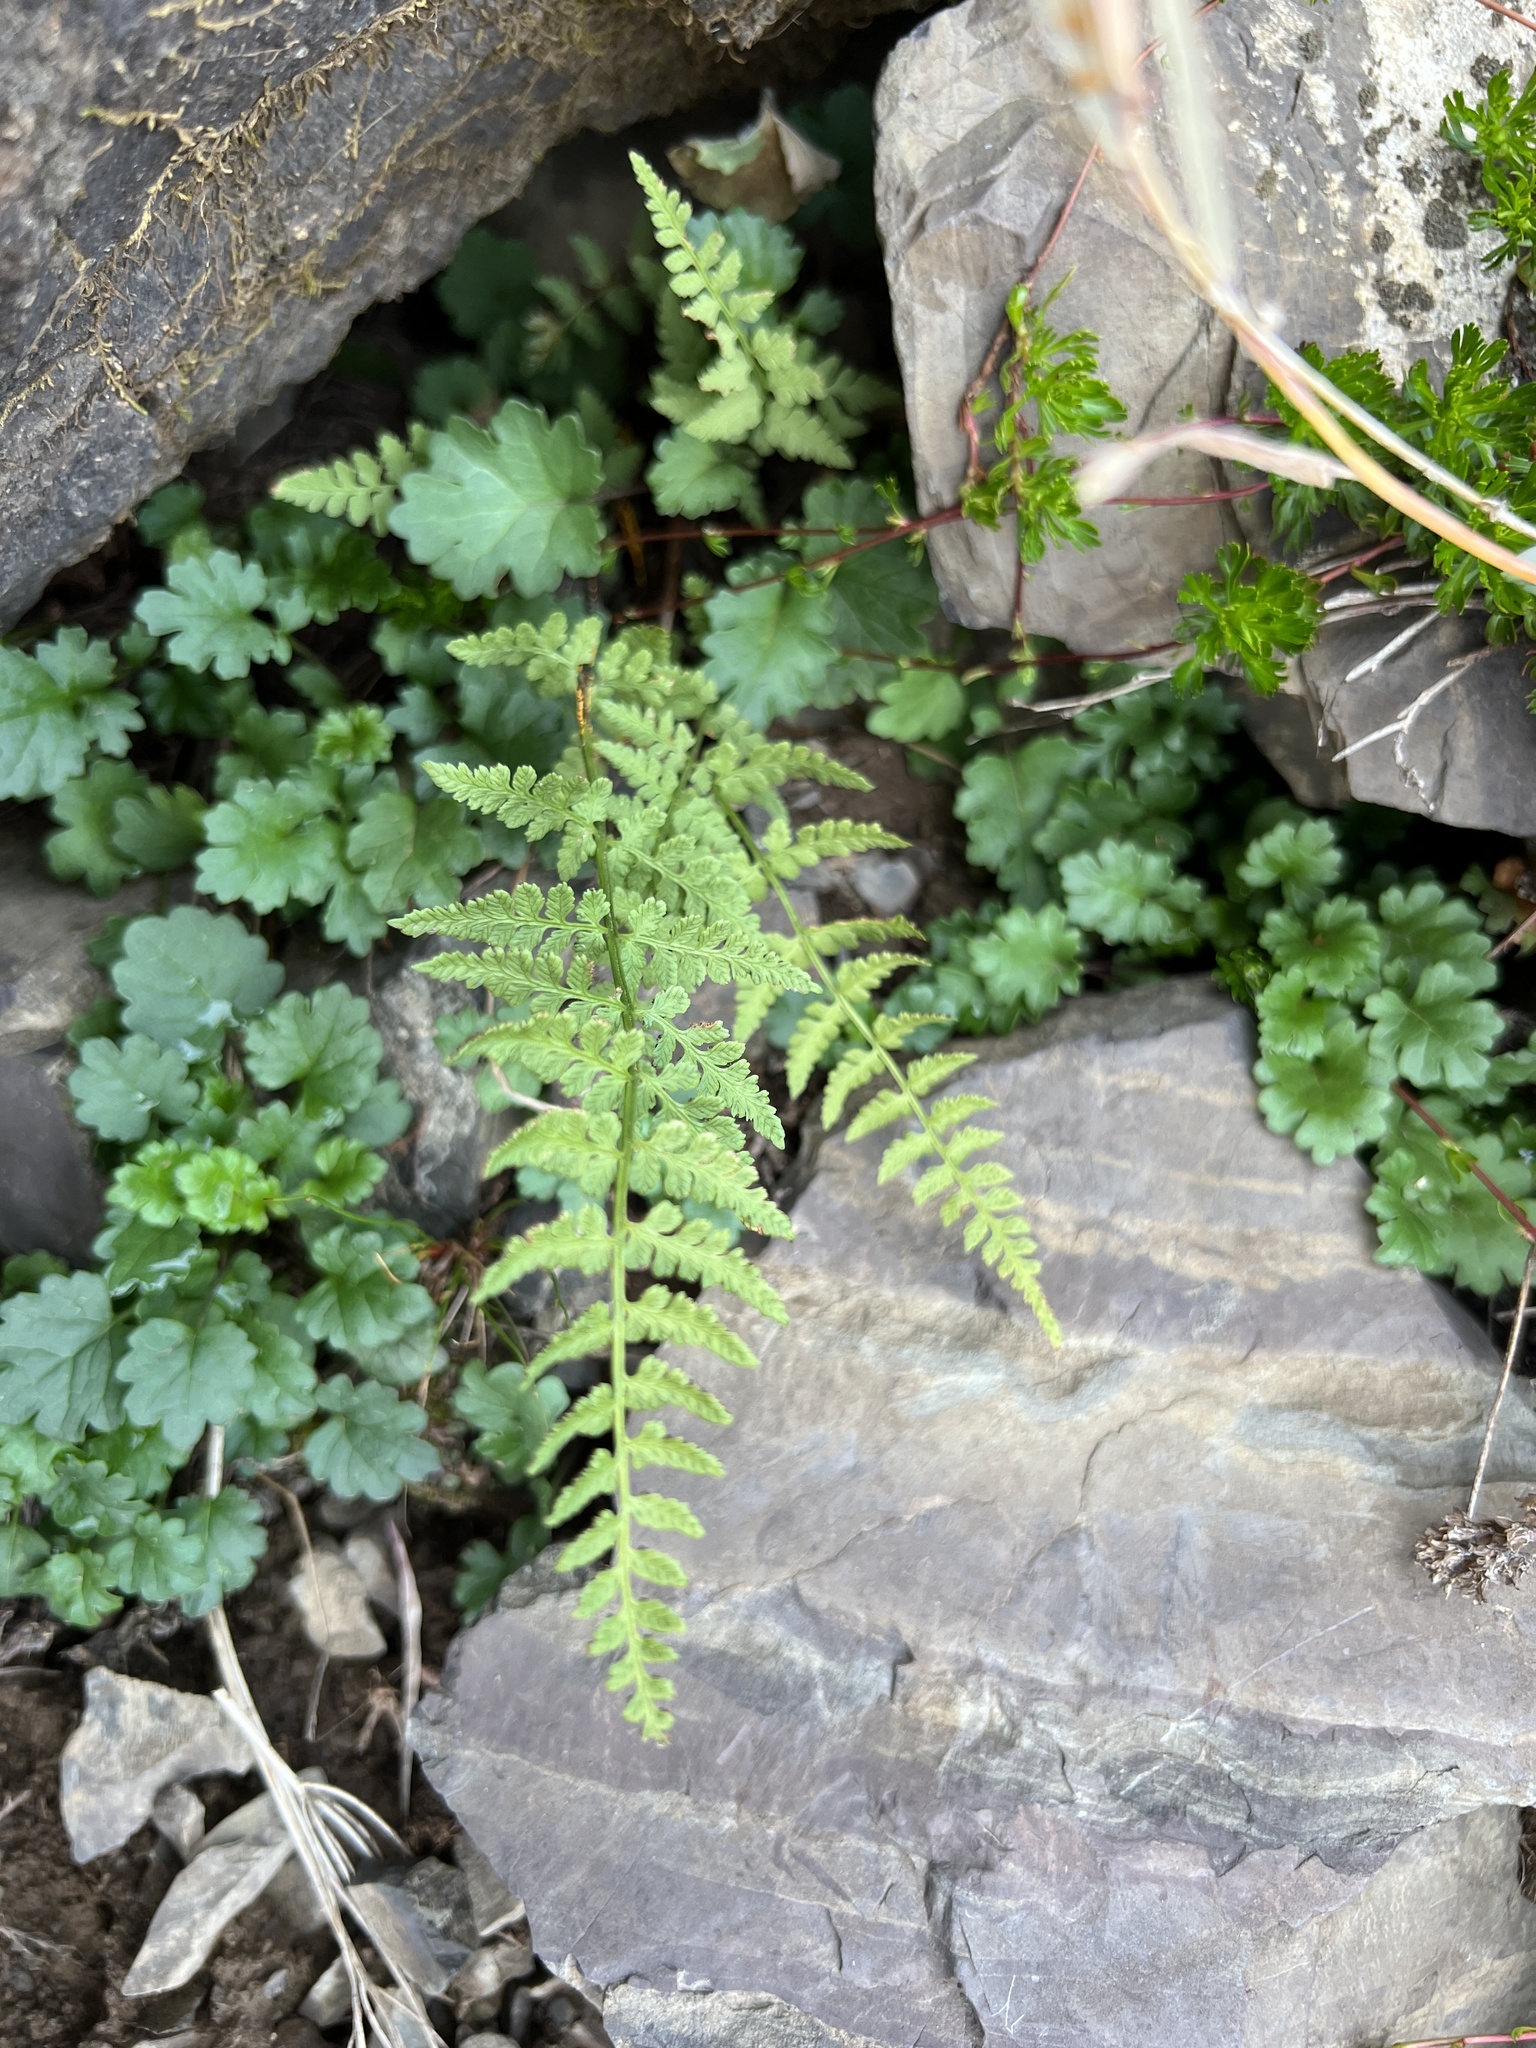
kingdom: Plantae
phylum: Tracheophyta
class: Polypodiopsida
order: Polypodiales
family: Cystopteridaceae
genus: Cystopteris
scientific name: Cystopteris fragilis
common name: Brittle bladder fern
